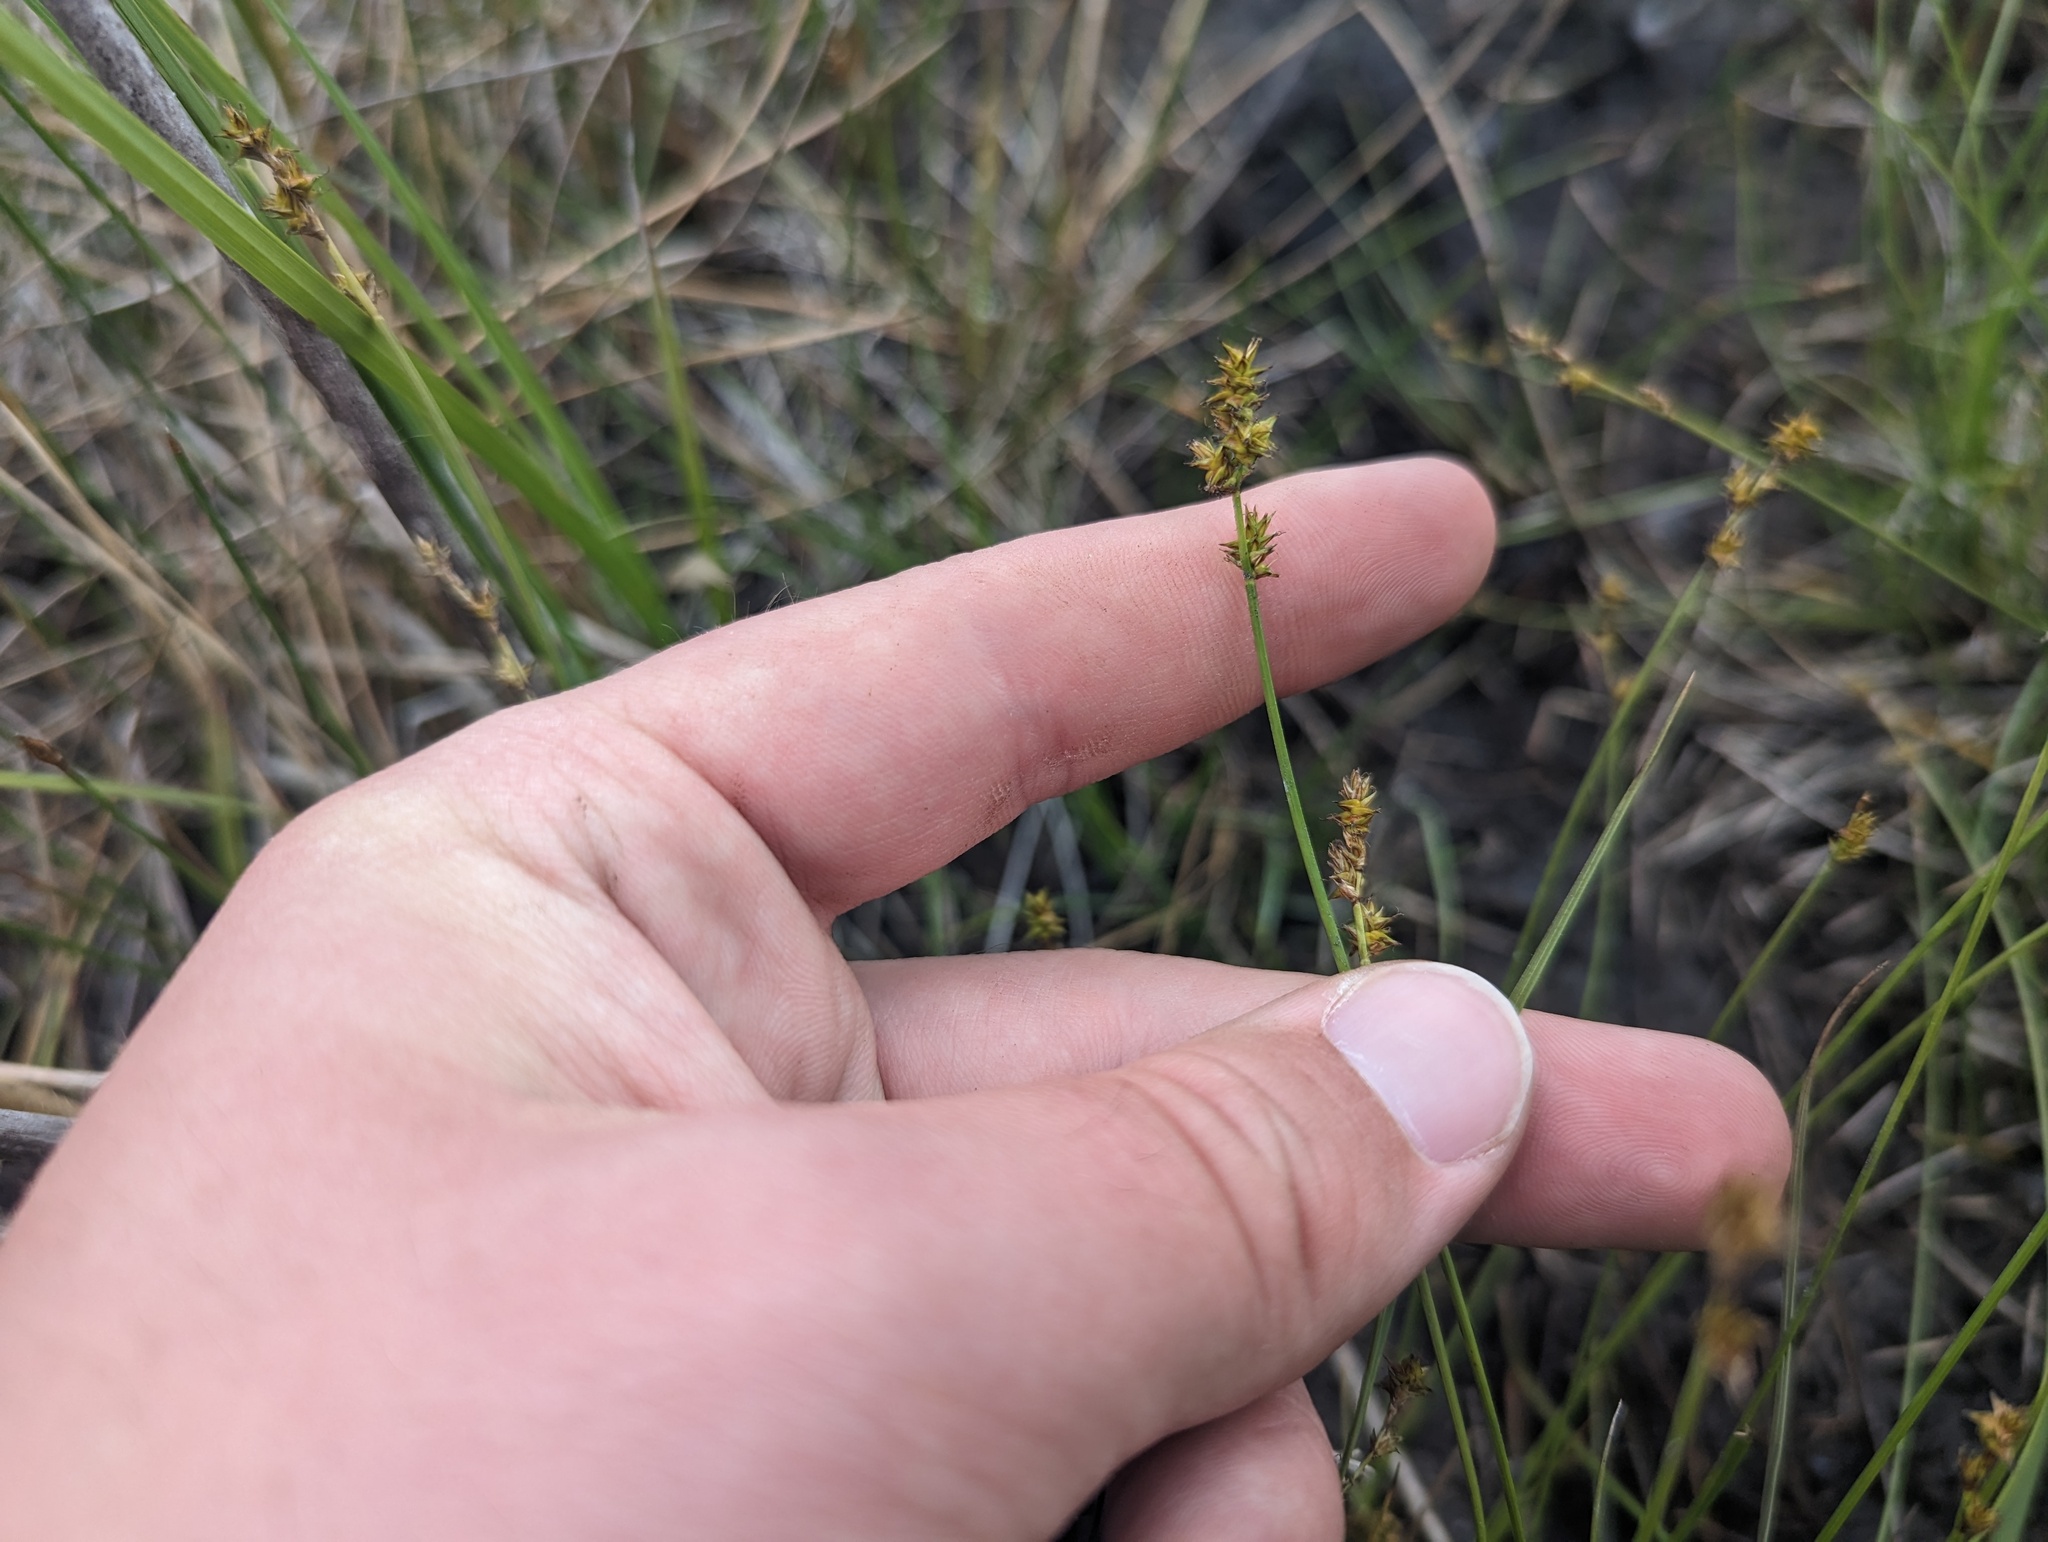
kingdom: Plantae
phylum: Tracheophyta
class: Liliopsida
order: Poales
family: Cyperaceae
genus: Carex
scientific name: Carex sterilis
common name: Dioecious sedge
